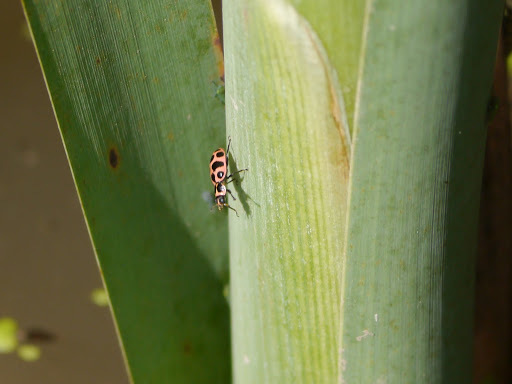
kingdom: Animalia
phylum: Arthropoda
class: Insecta
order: Coleoptera
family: Coccinellidae
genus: Coleomegilla
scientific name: Coleomegilla maculata
